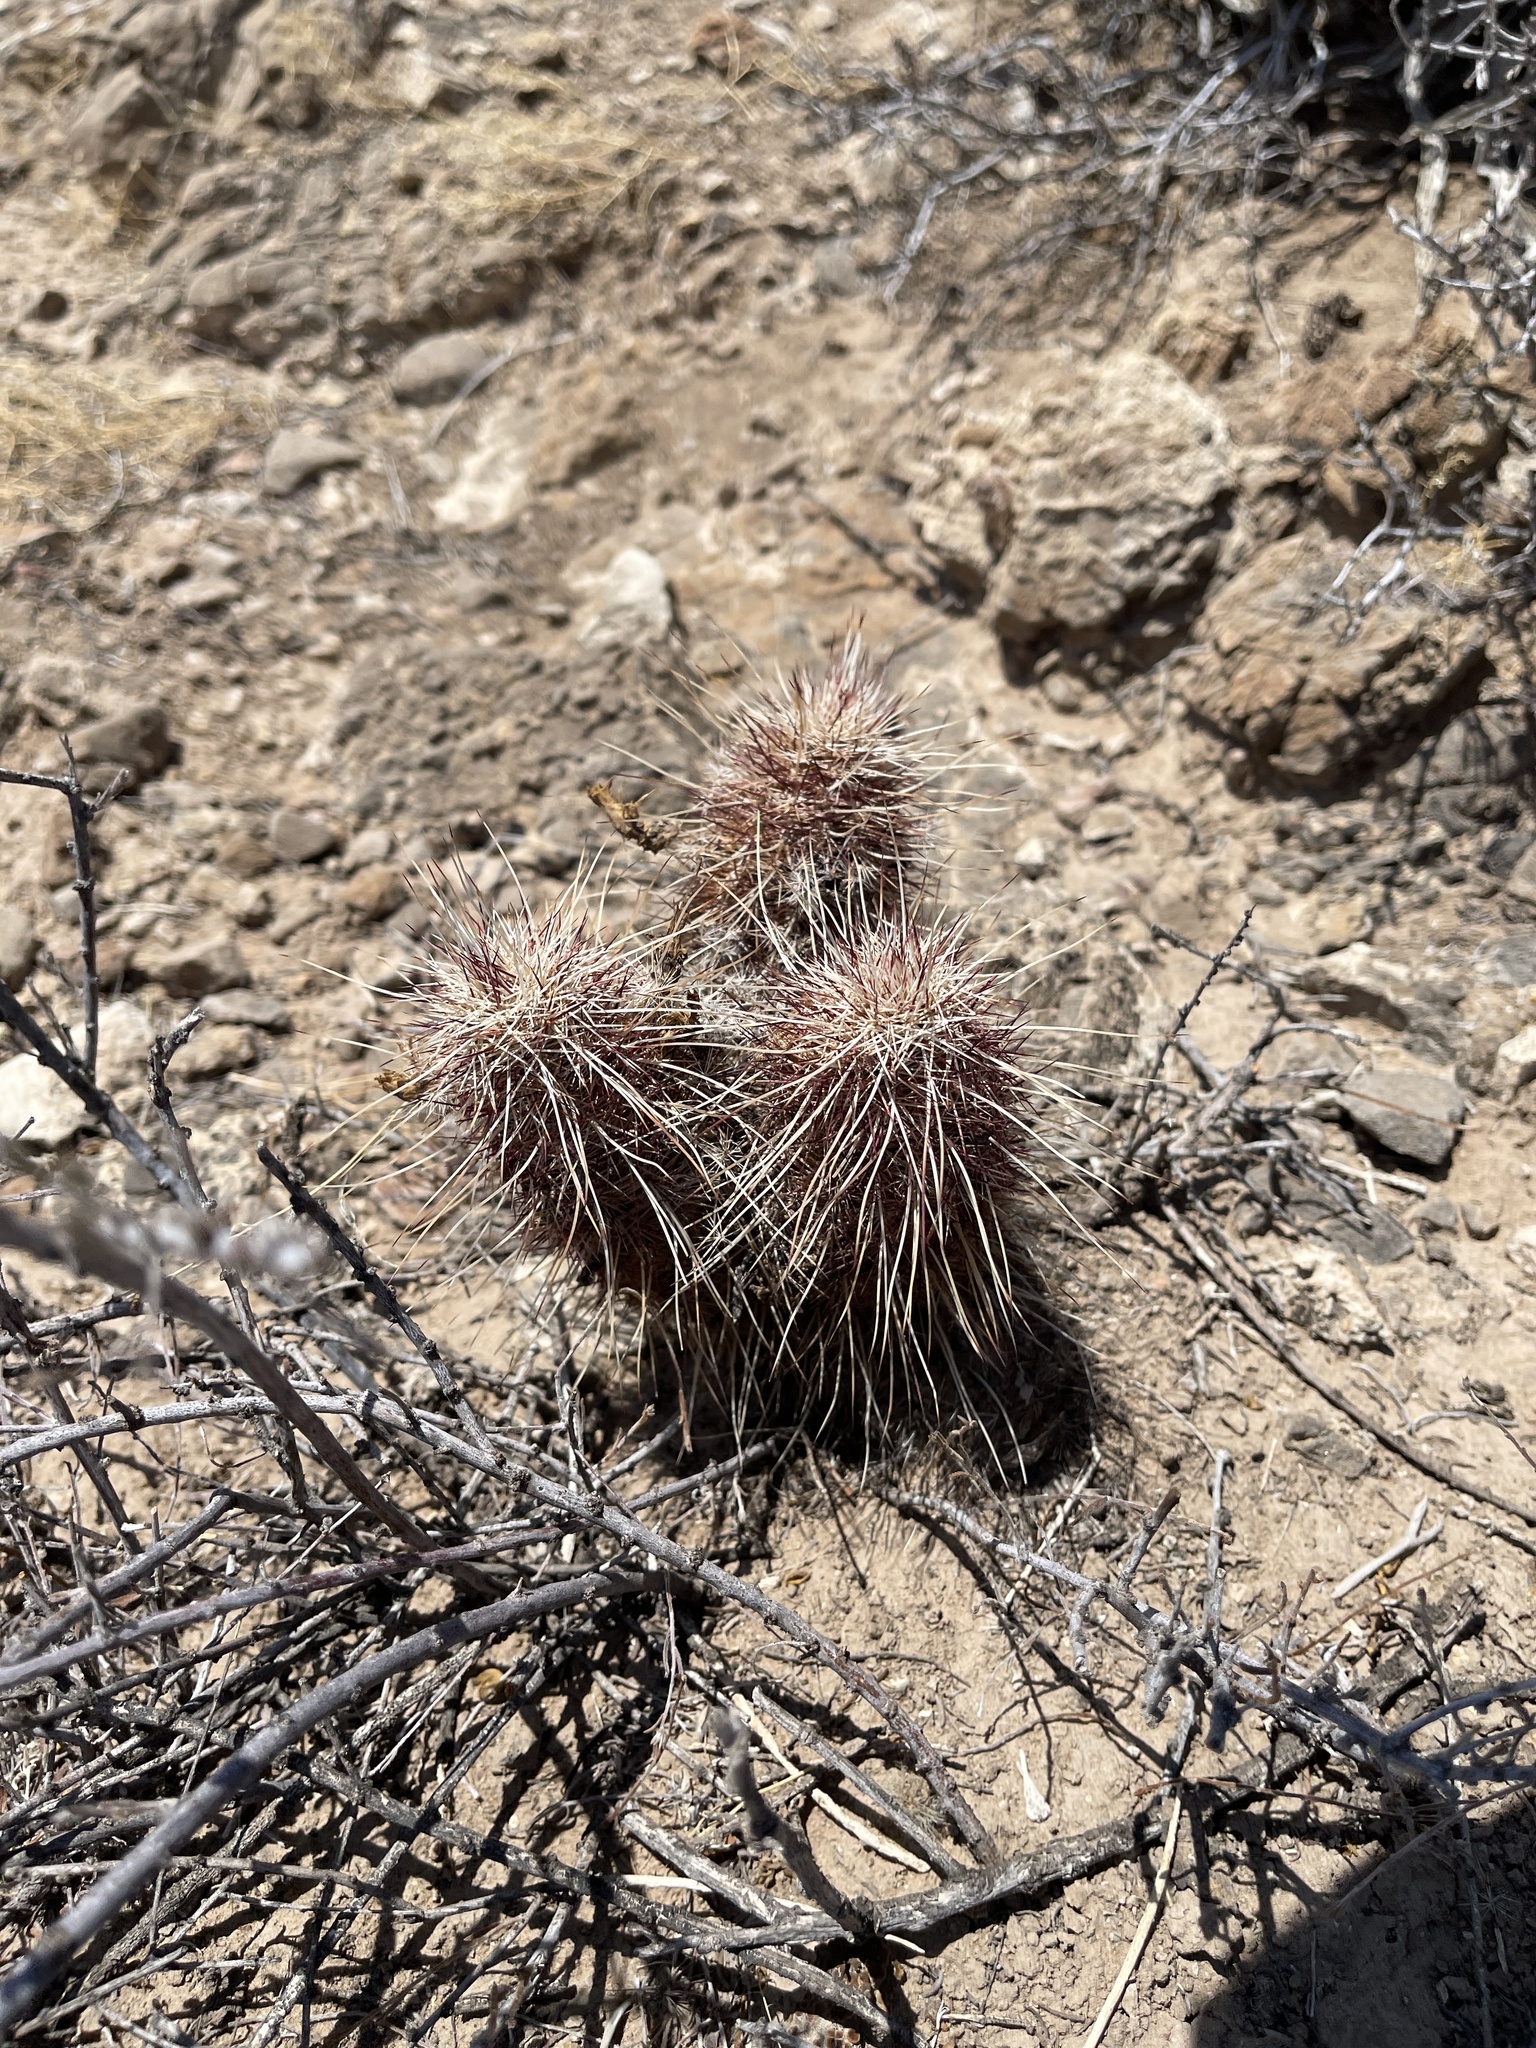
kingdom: Plantae
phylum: Tracheophyta
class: Magnoliopsida
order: Caryophyllales
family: Cactaceae
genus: Echinocereus
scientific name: Echinocereus viridiflorus
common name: Nylon hedgehog cactus
